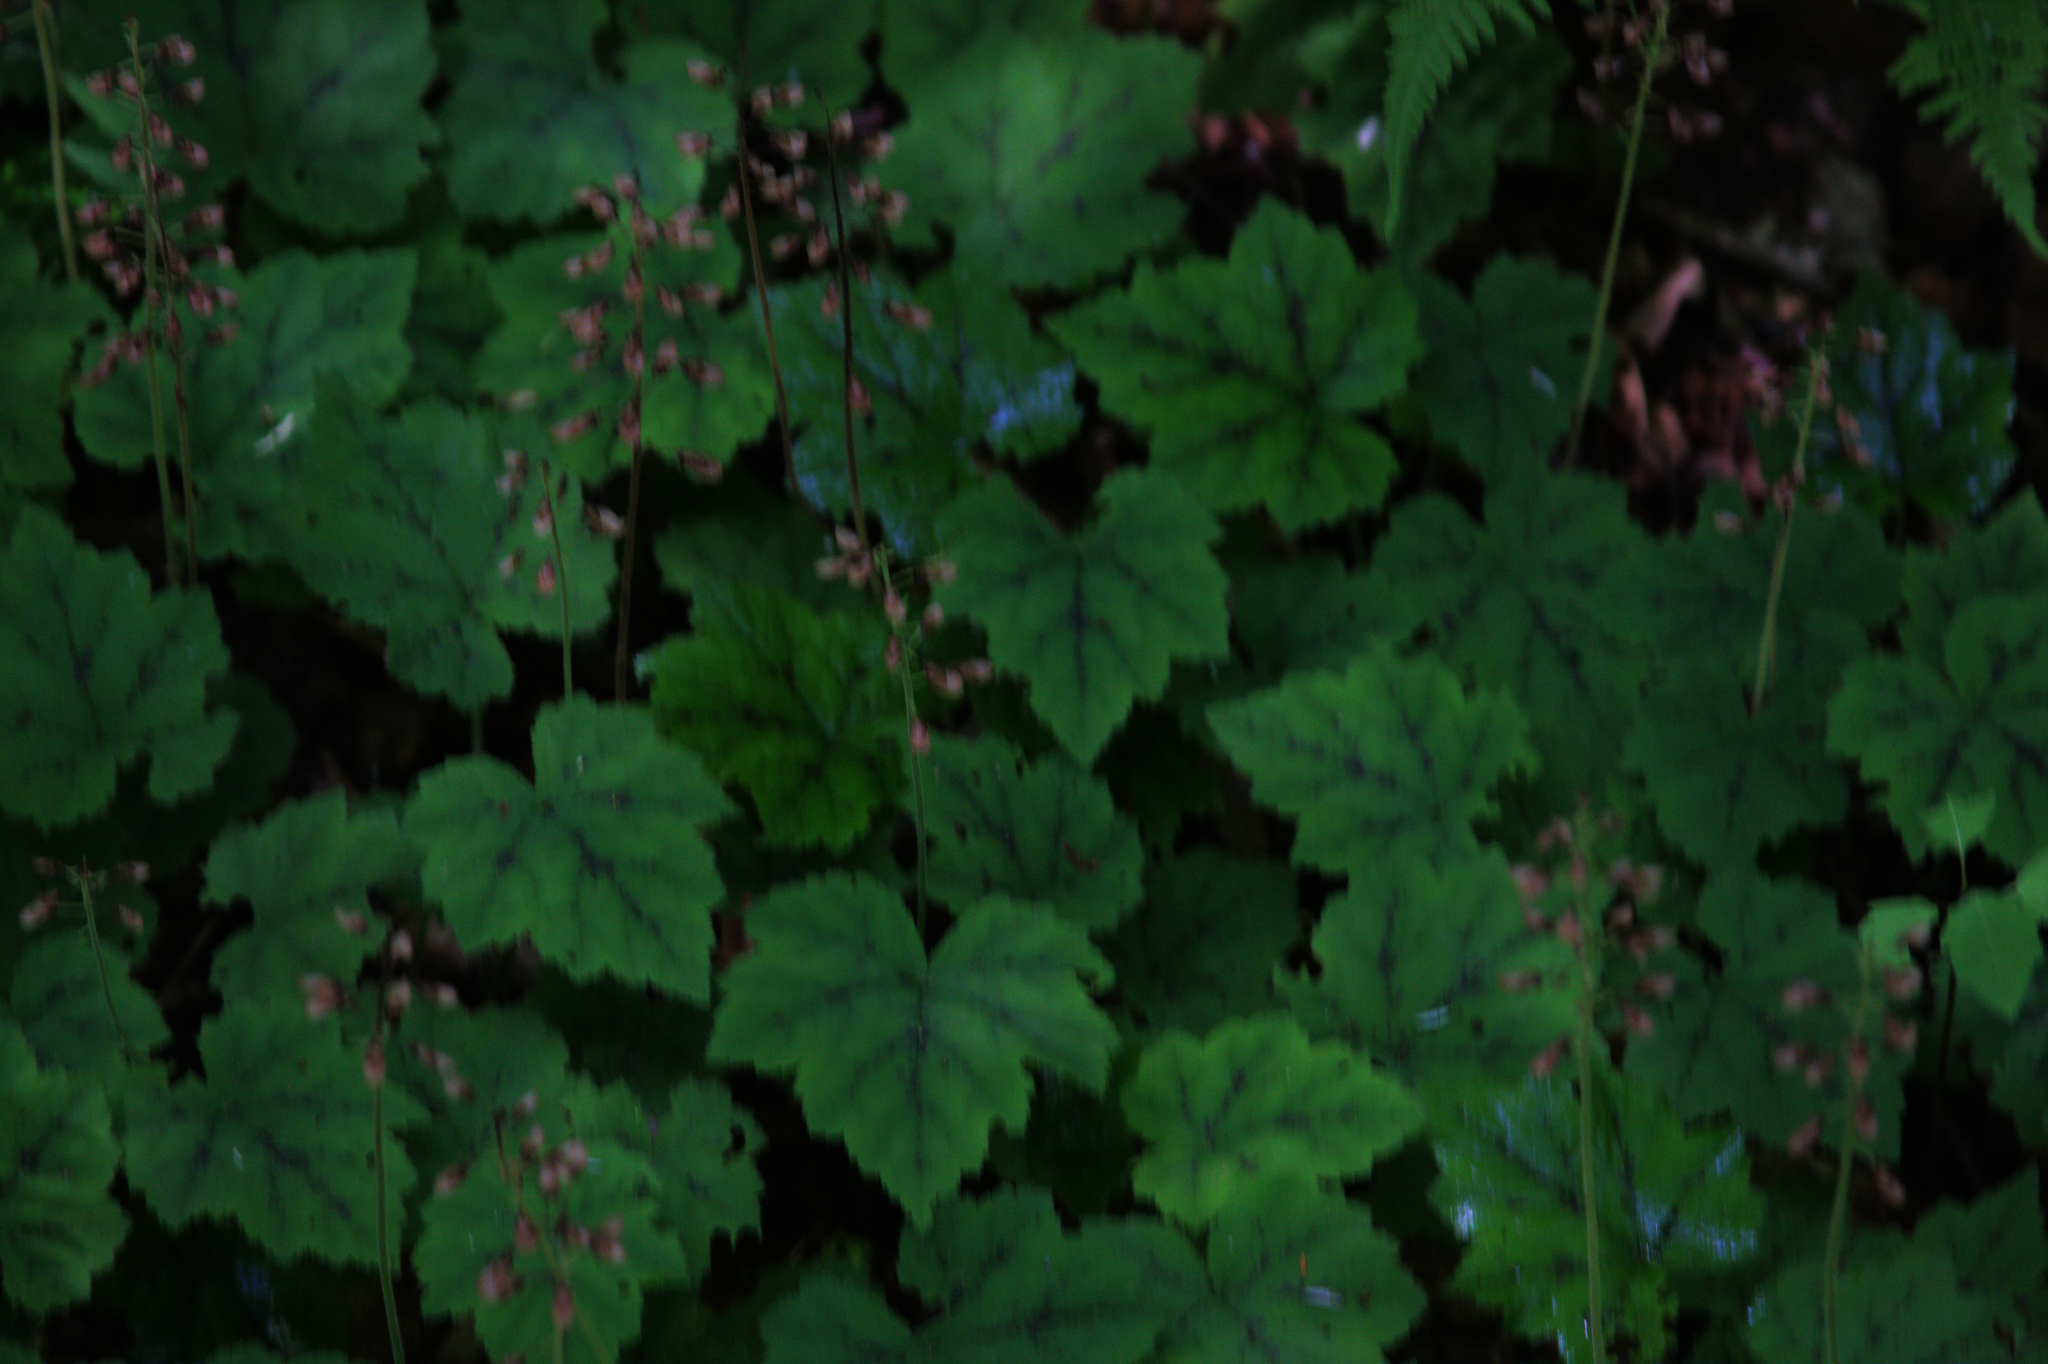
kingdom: Plantae
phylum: Tracheophyta
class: Magnoliopsida
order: Saxifragales
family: Saxifragaceae
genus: Tiarella
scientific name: Tiarella stolonifera
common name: Stoloniferous foamflower
